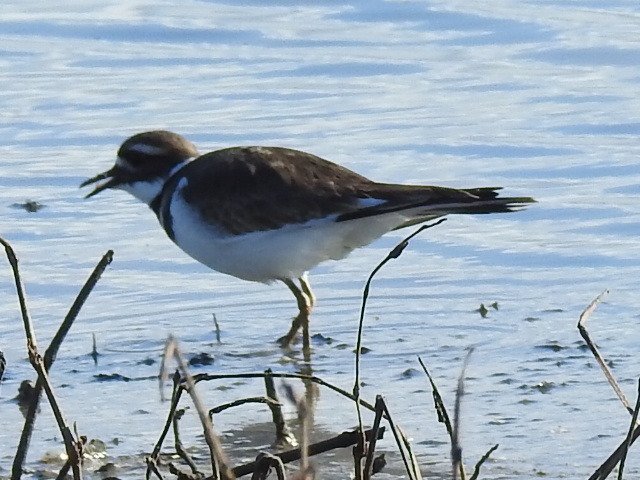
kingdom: Animalia
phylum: Chordata
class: Aves
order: Charadriiformes
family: Charadriidae
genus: Charadrius
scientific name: Charadrius vociferus
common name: Killdeer
